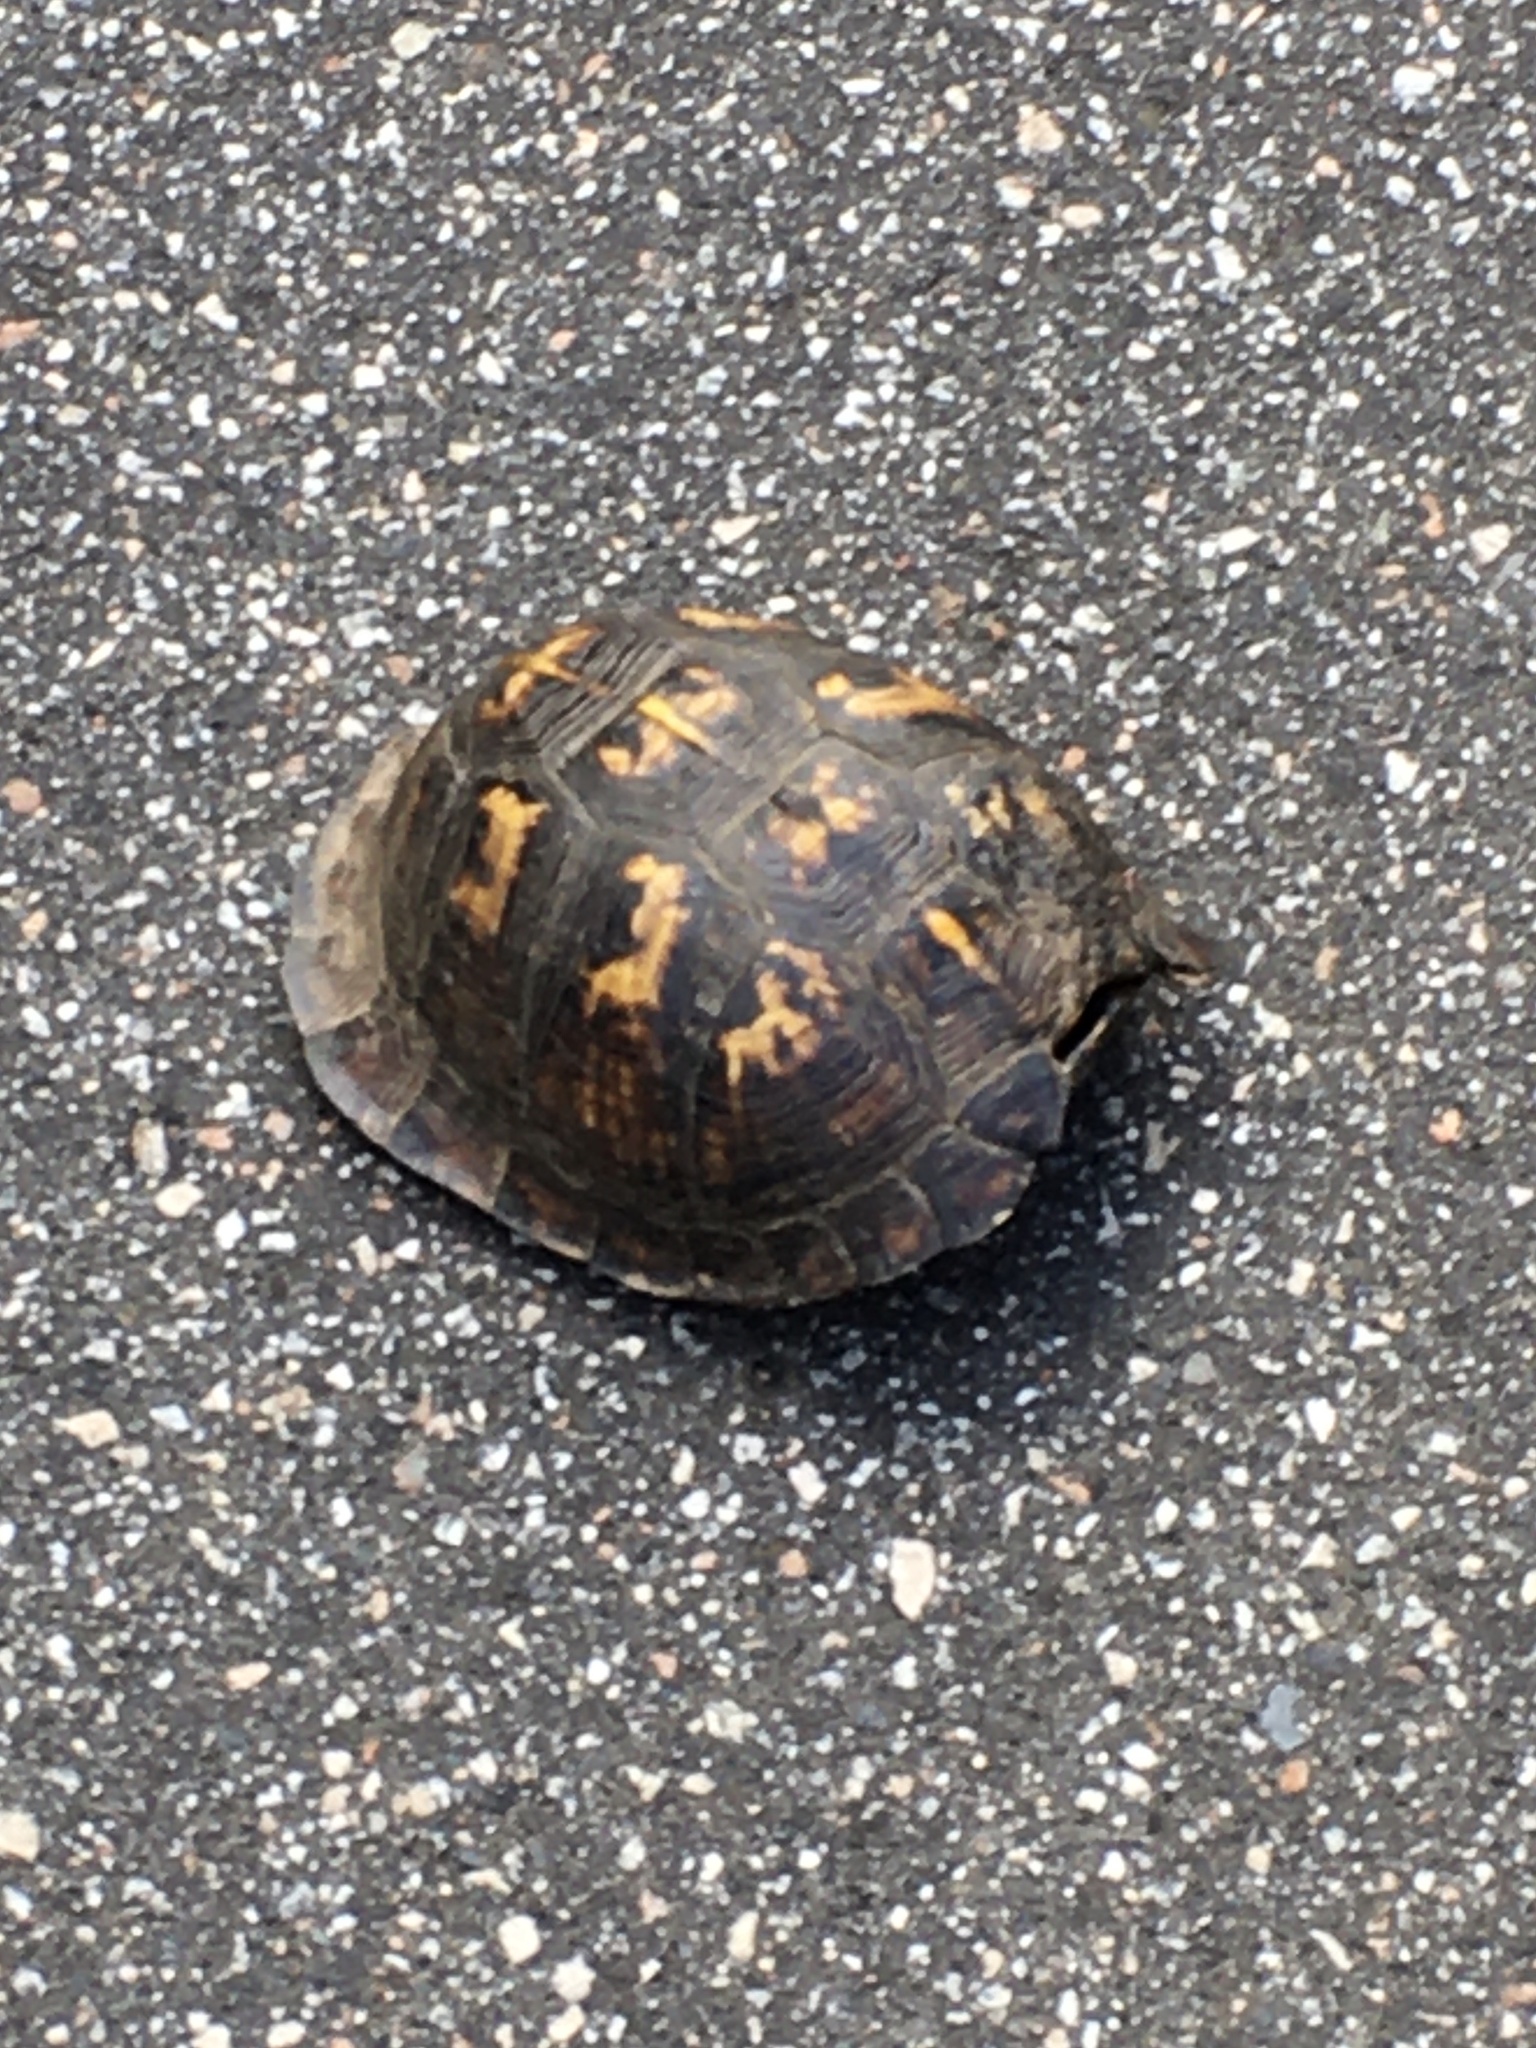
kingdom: Animalia
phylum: Chordata
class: Testudines
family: Emydidae
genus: Terrapene
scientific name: Terrapene carolina
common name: Common box turtle
